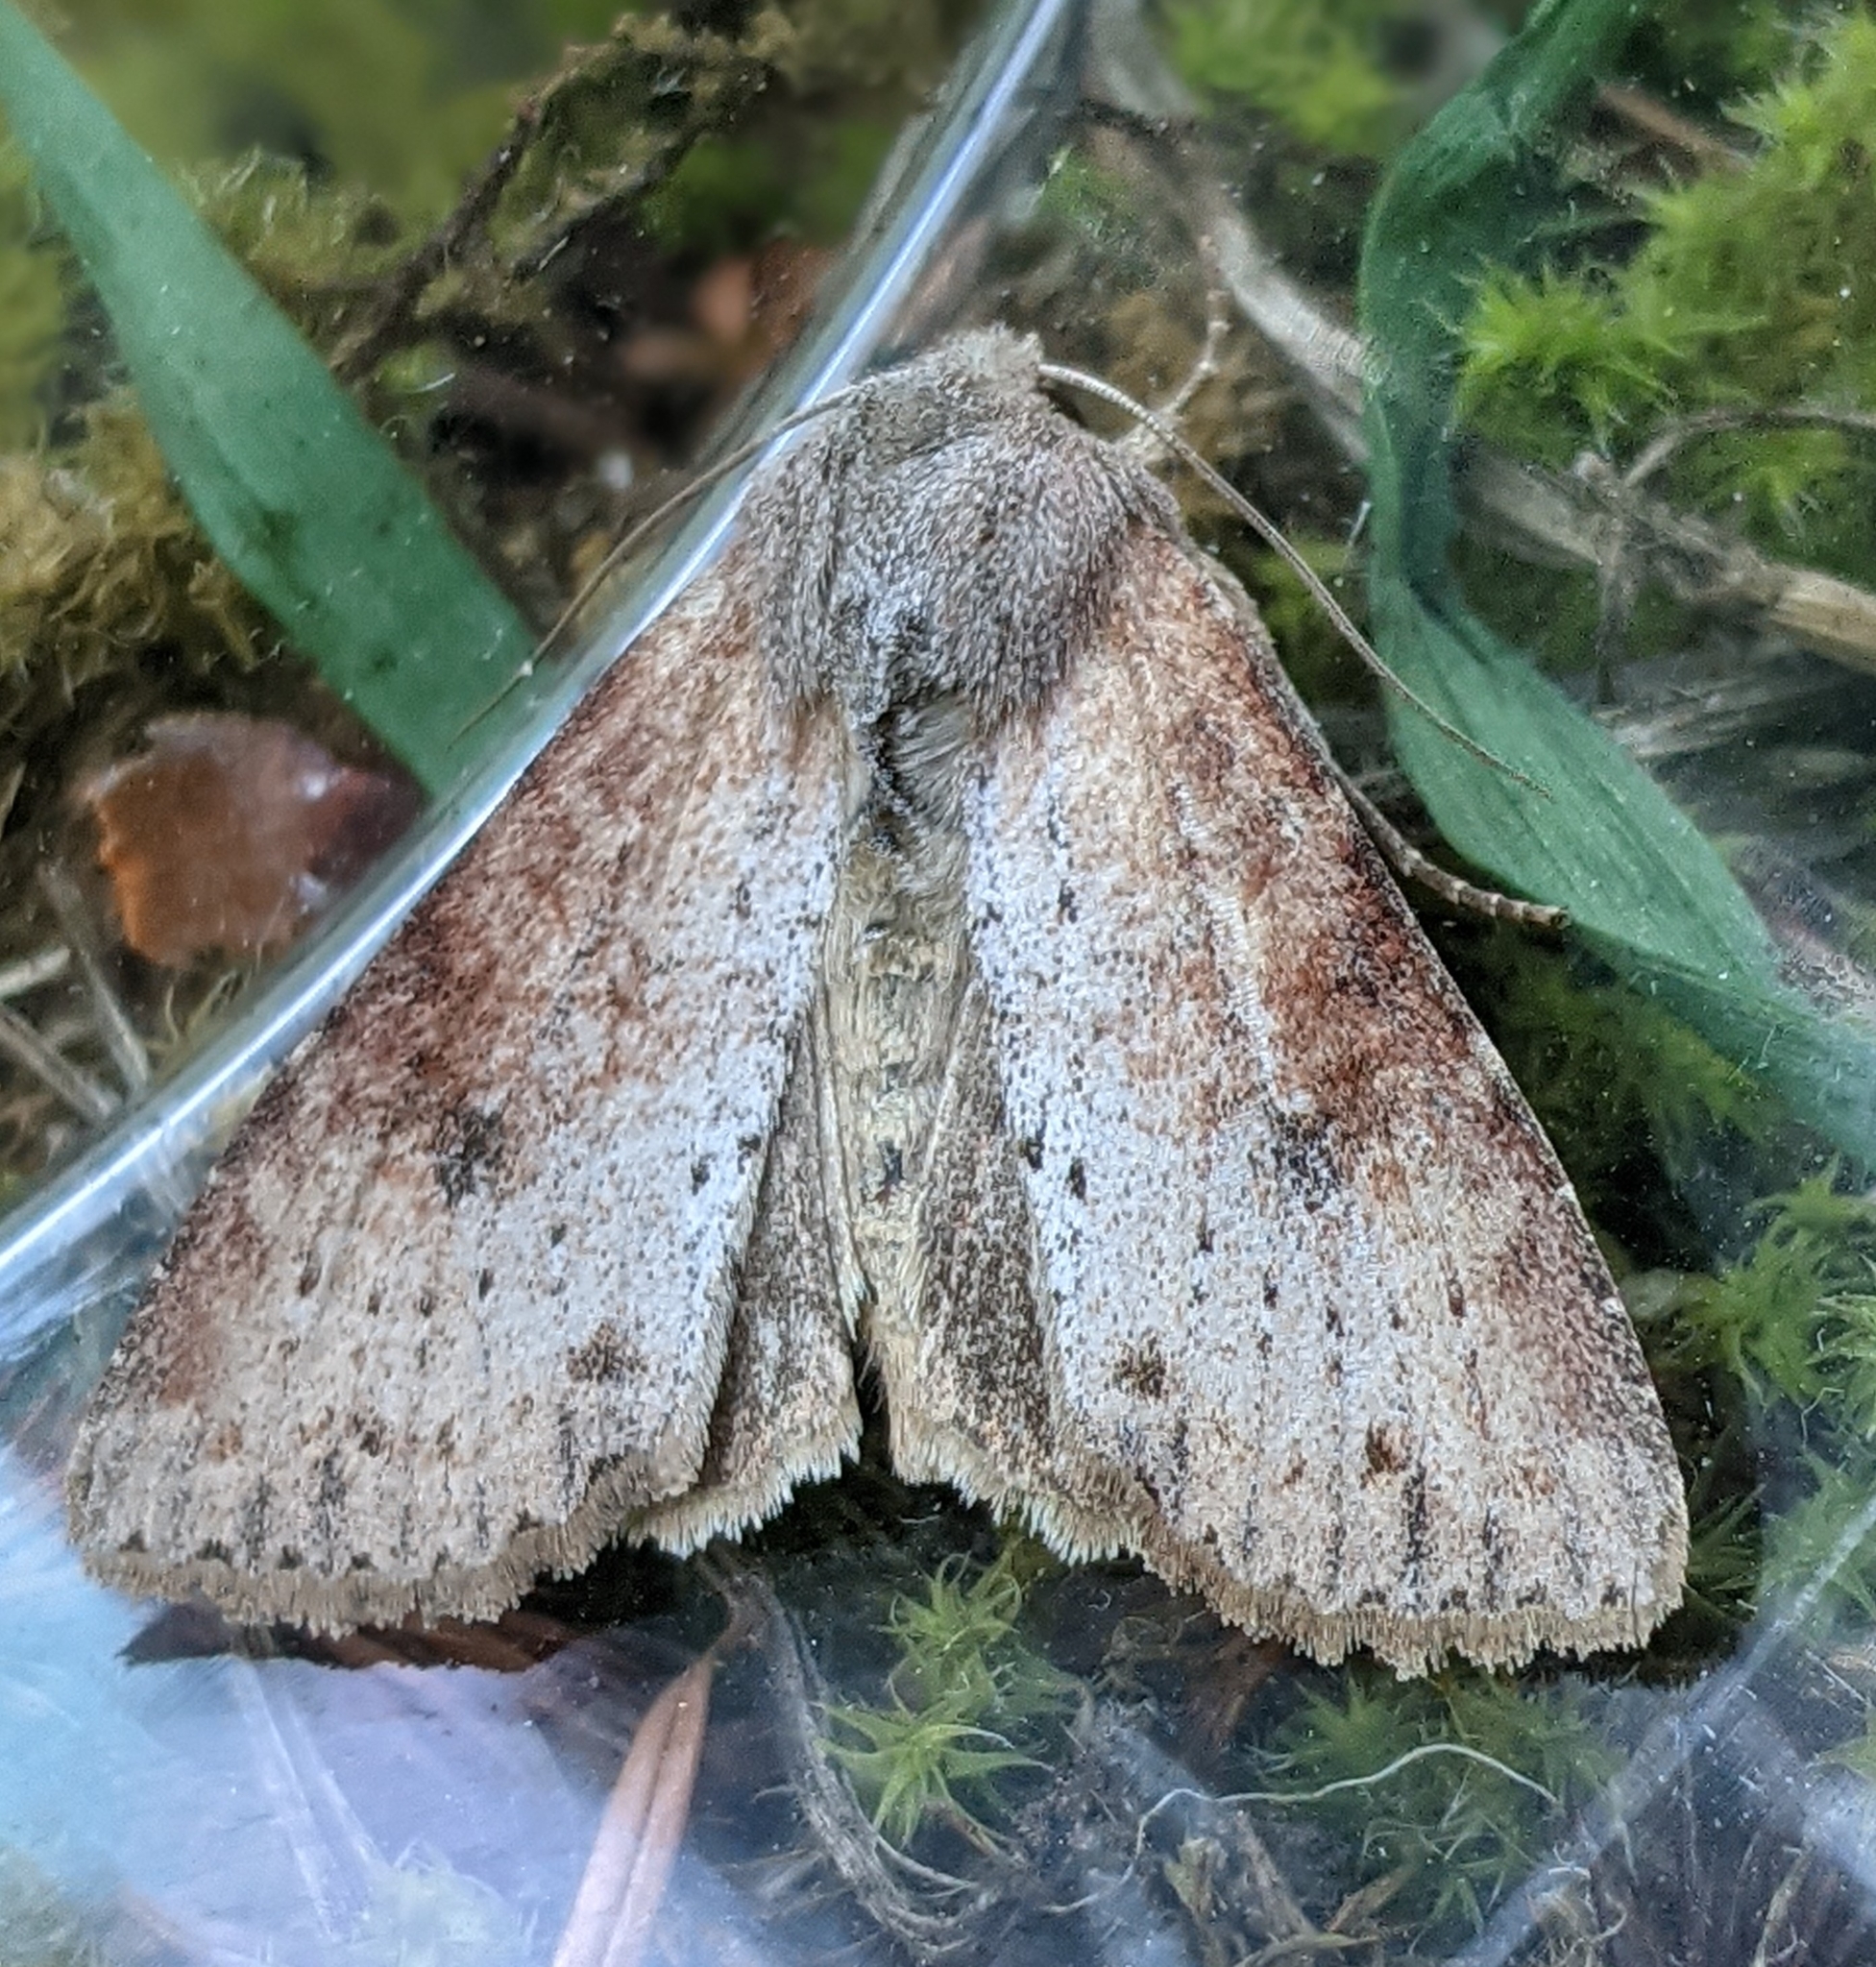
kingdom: Animalia
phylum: Arthropoda
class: Insecta
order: Lepidoptera
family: Noctuidae
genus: Apamea
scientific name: Apamea alia
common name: Fox apamea
